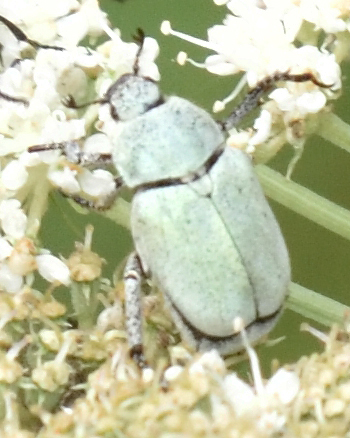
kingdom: Animalia
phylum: Arthropoda
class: Insecta
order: Coleoptera
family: Scarabaeidae
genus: Hoplia
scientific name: Hoplia parvula
